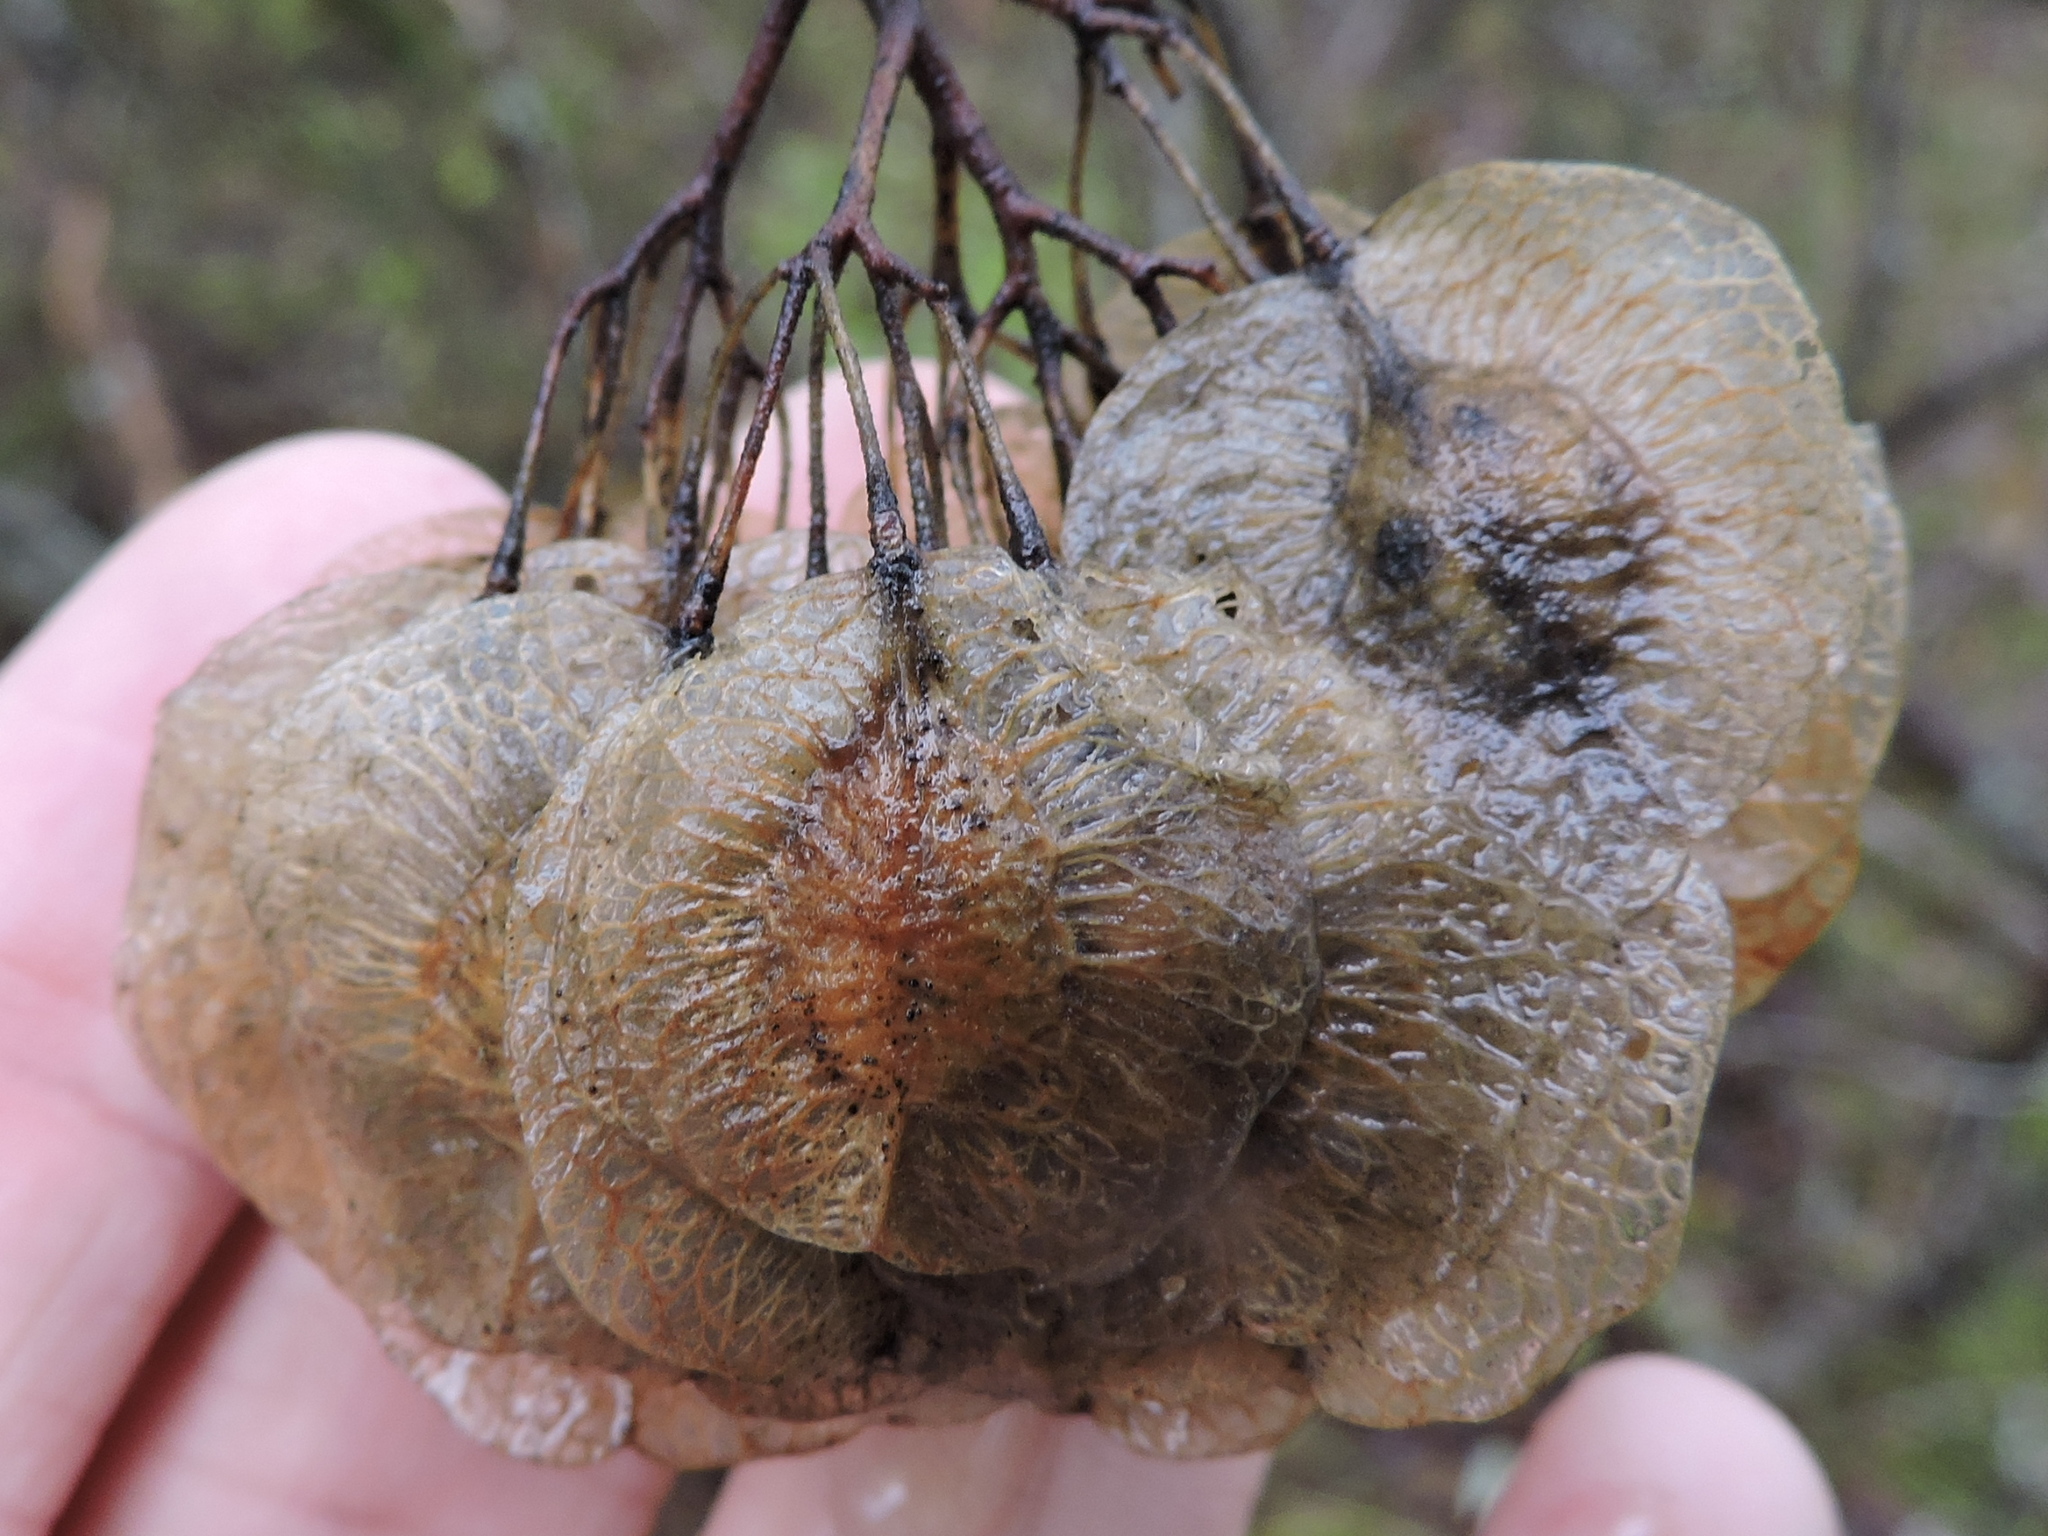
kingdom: Plantae
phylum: Tracheophyta
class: Magnoliopsida
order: Sapindales
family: Rutaceae
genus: Ptelea
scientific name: Ptelea trifoliata
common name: Common hop-tree
